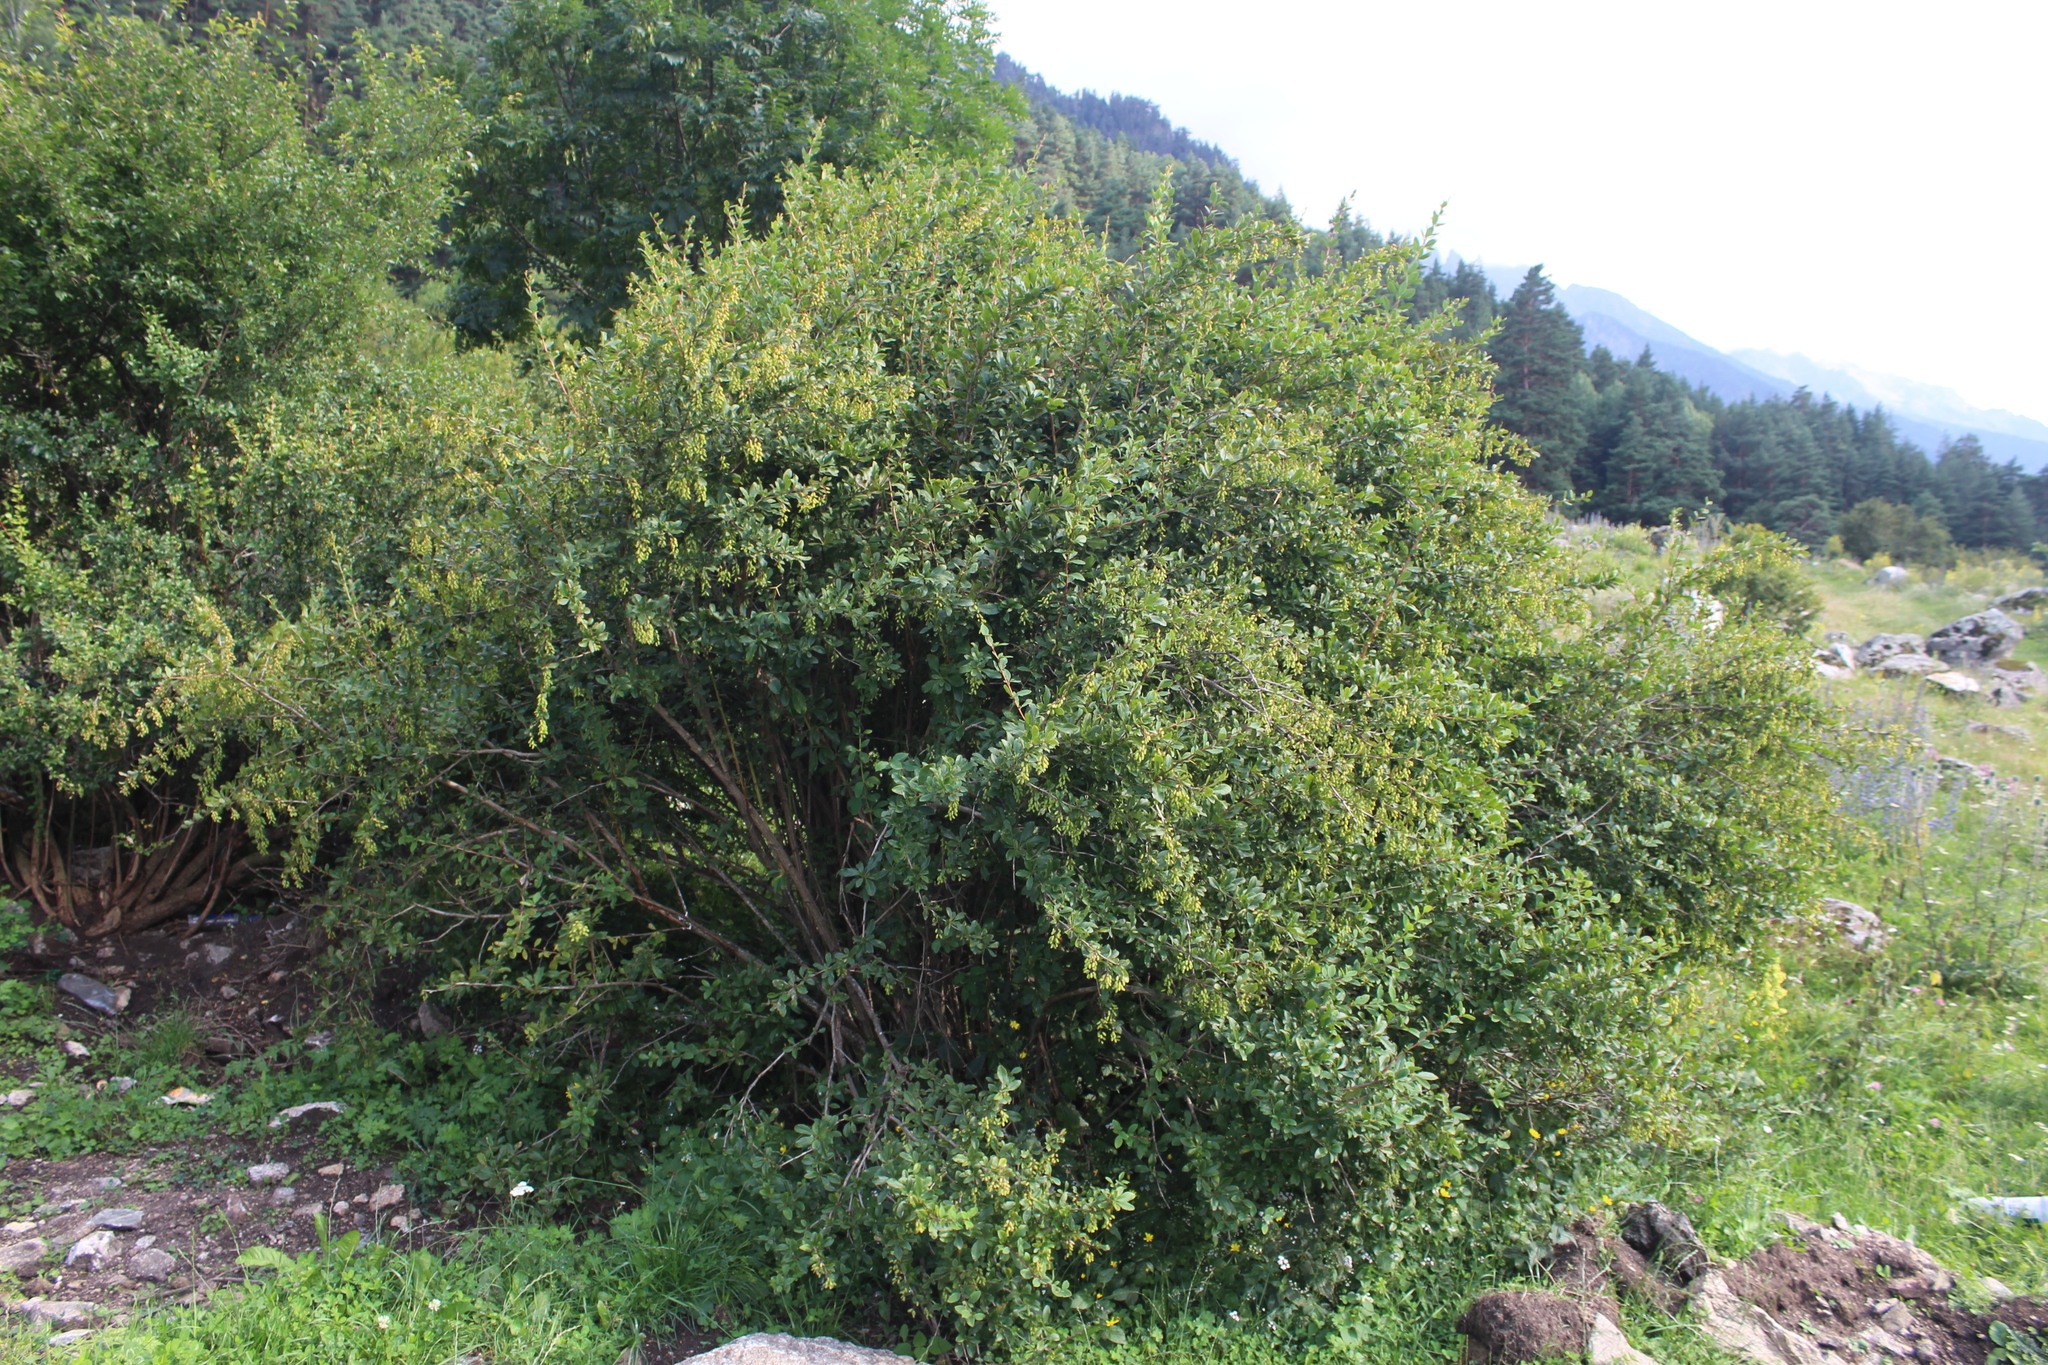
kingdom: Plantae
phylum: Tracheophyta
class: Magnoliopsida
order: Ranunculales
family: Berberidaceae
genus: Berberis
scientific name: Berberis vulgaris
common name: Barberry
